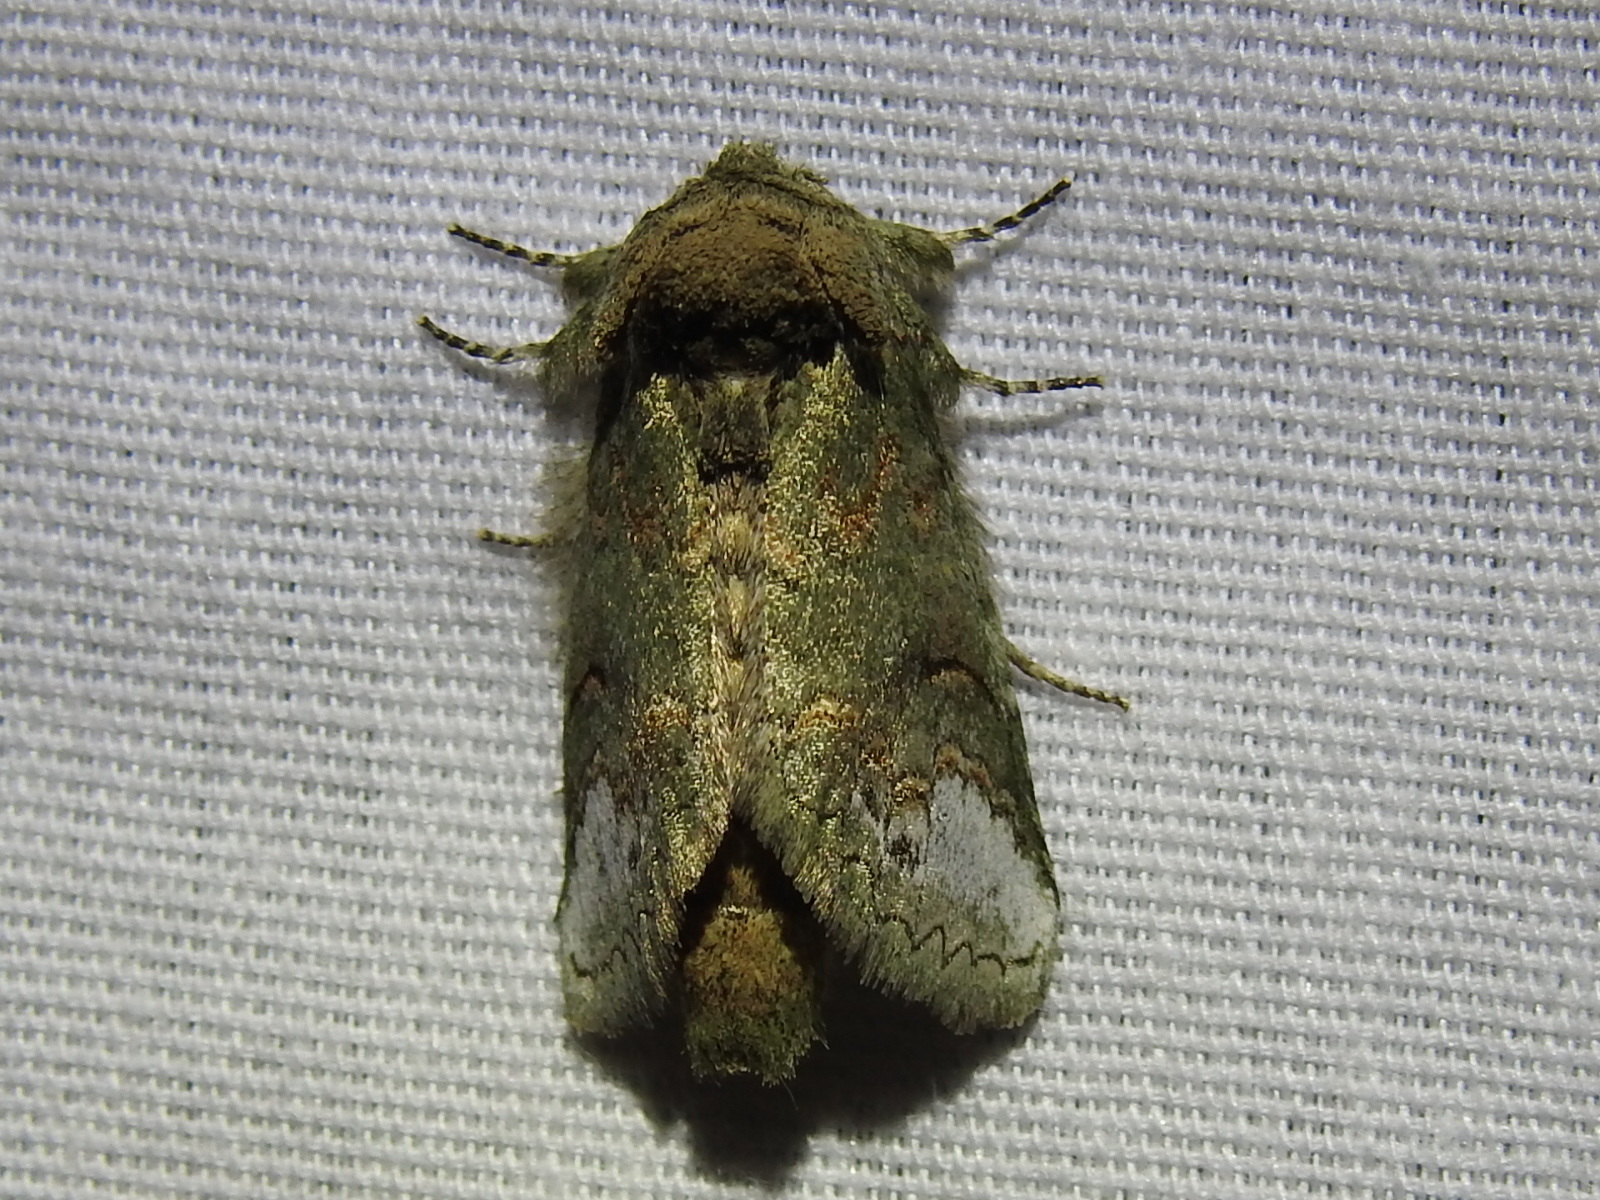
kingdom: Animalia
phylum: Arthropoda
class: Insecta
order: Lepidoptera
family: Notodontidae
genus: Rifargia
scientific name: Rifargia
